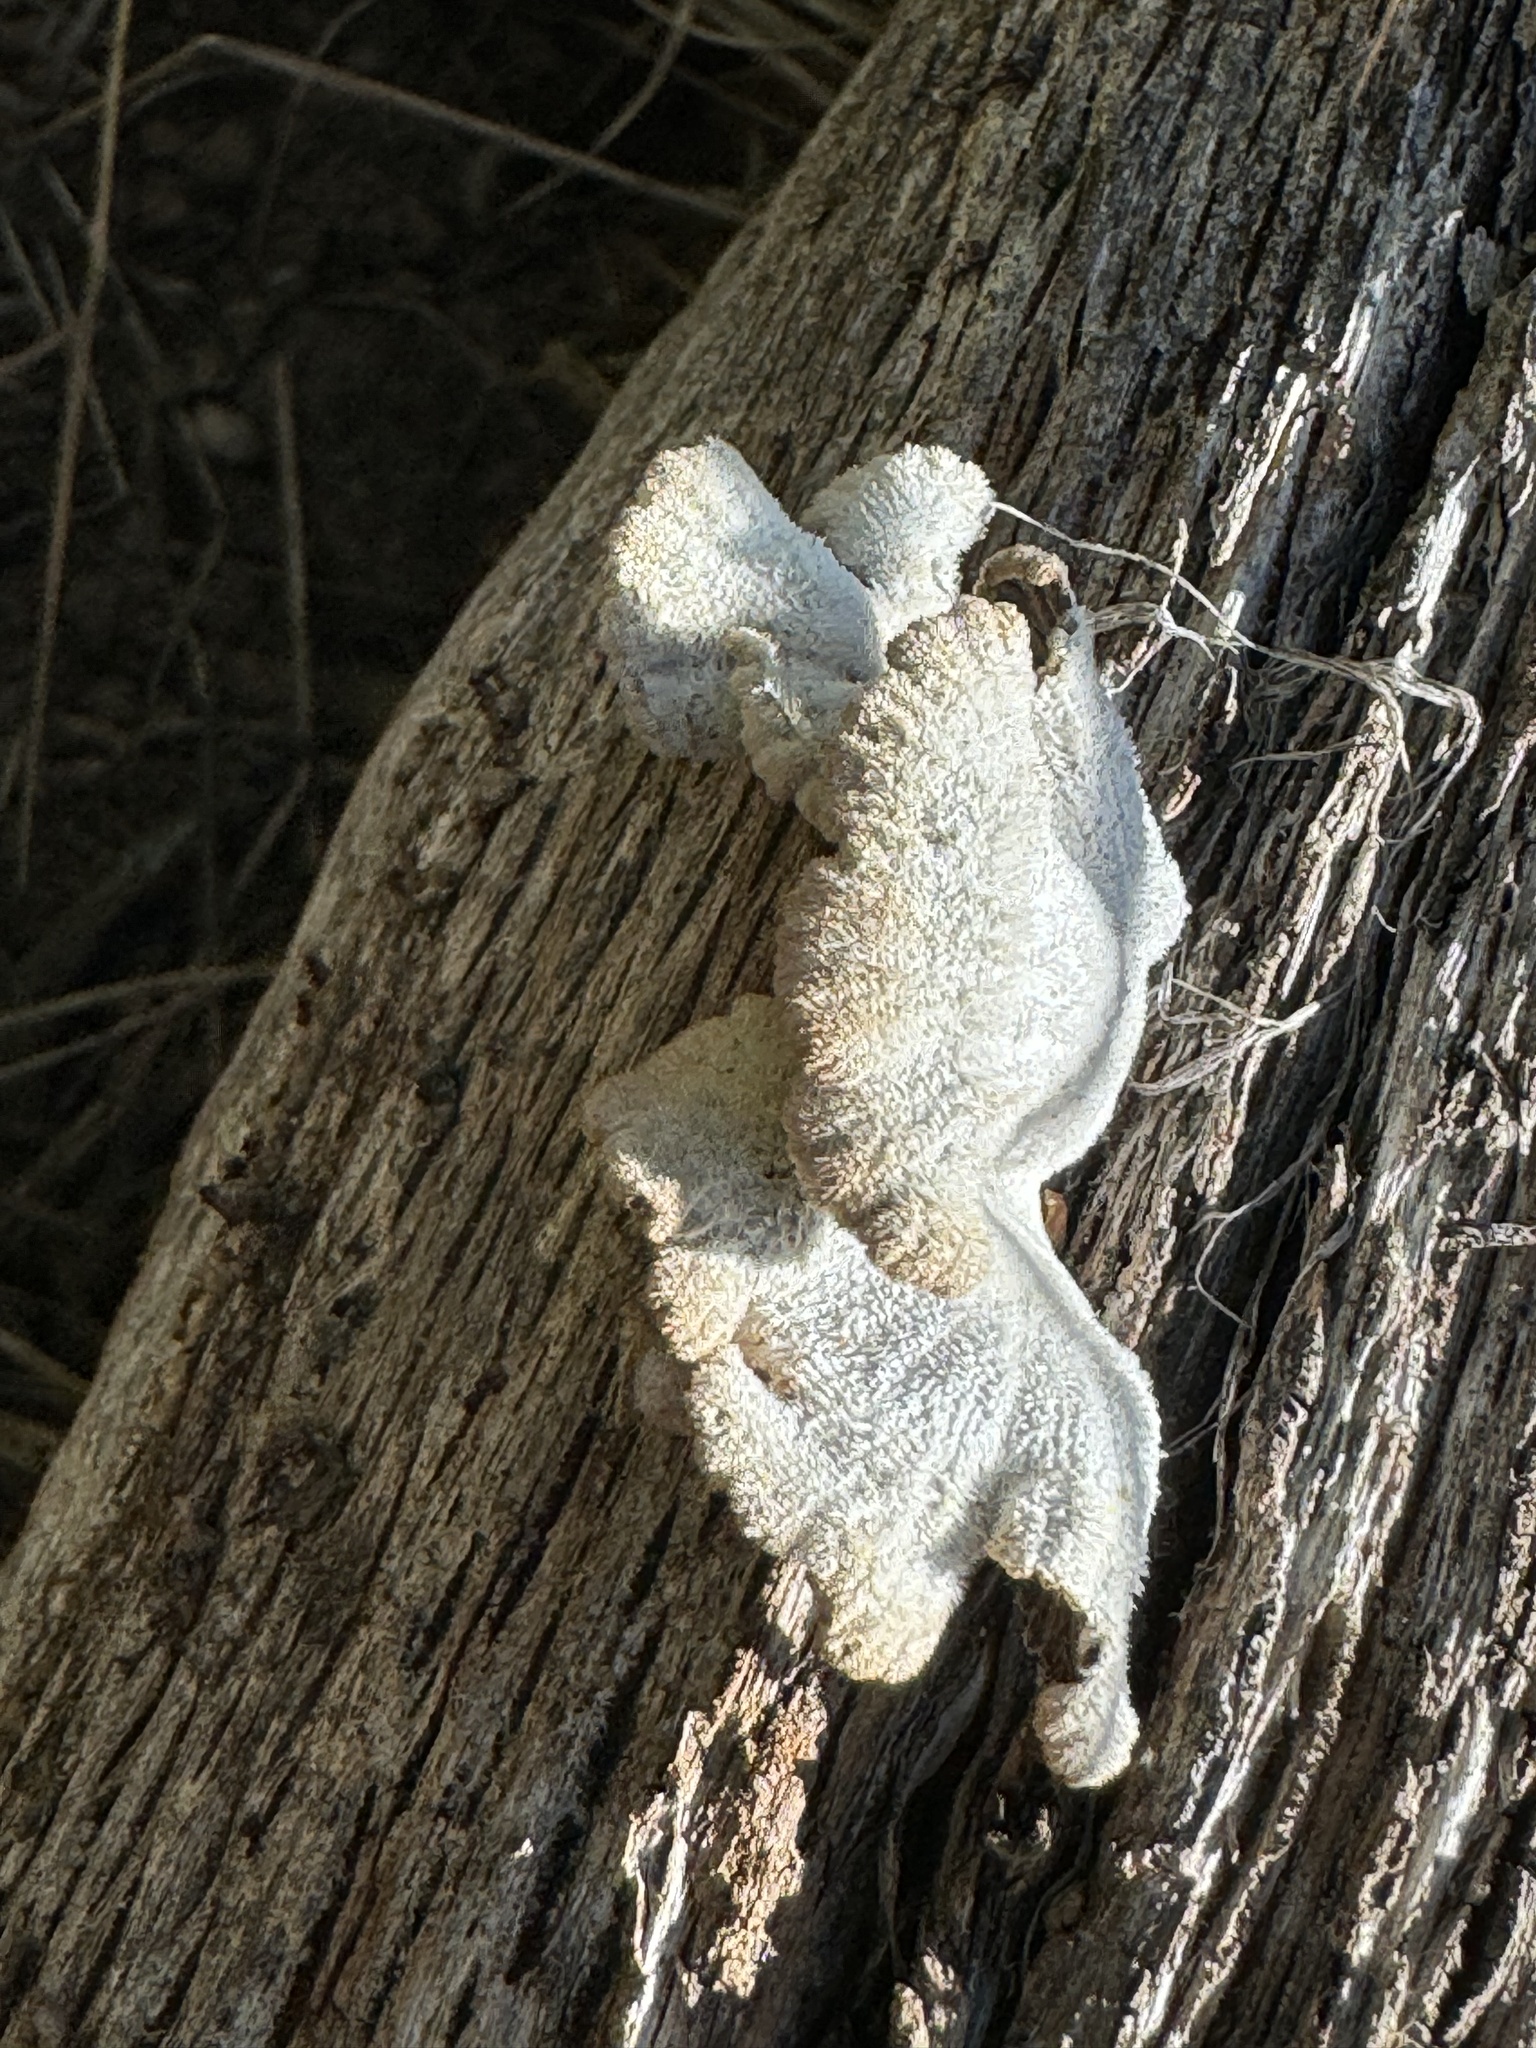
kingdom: Fungi
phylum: Basidiomycota
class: Agaricomycetes
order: Agaricales
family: Schizophyllaceae
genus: Schizophyllum
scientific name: Schizophyllum commune
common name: Common porecrust
